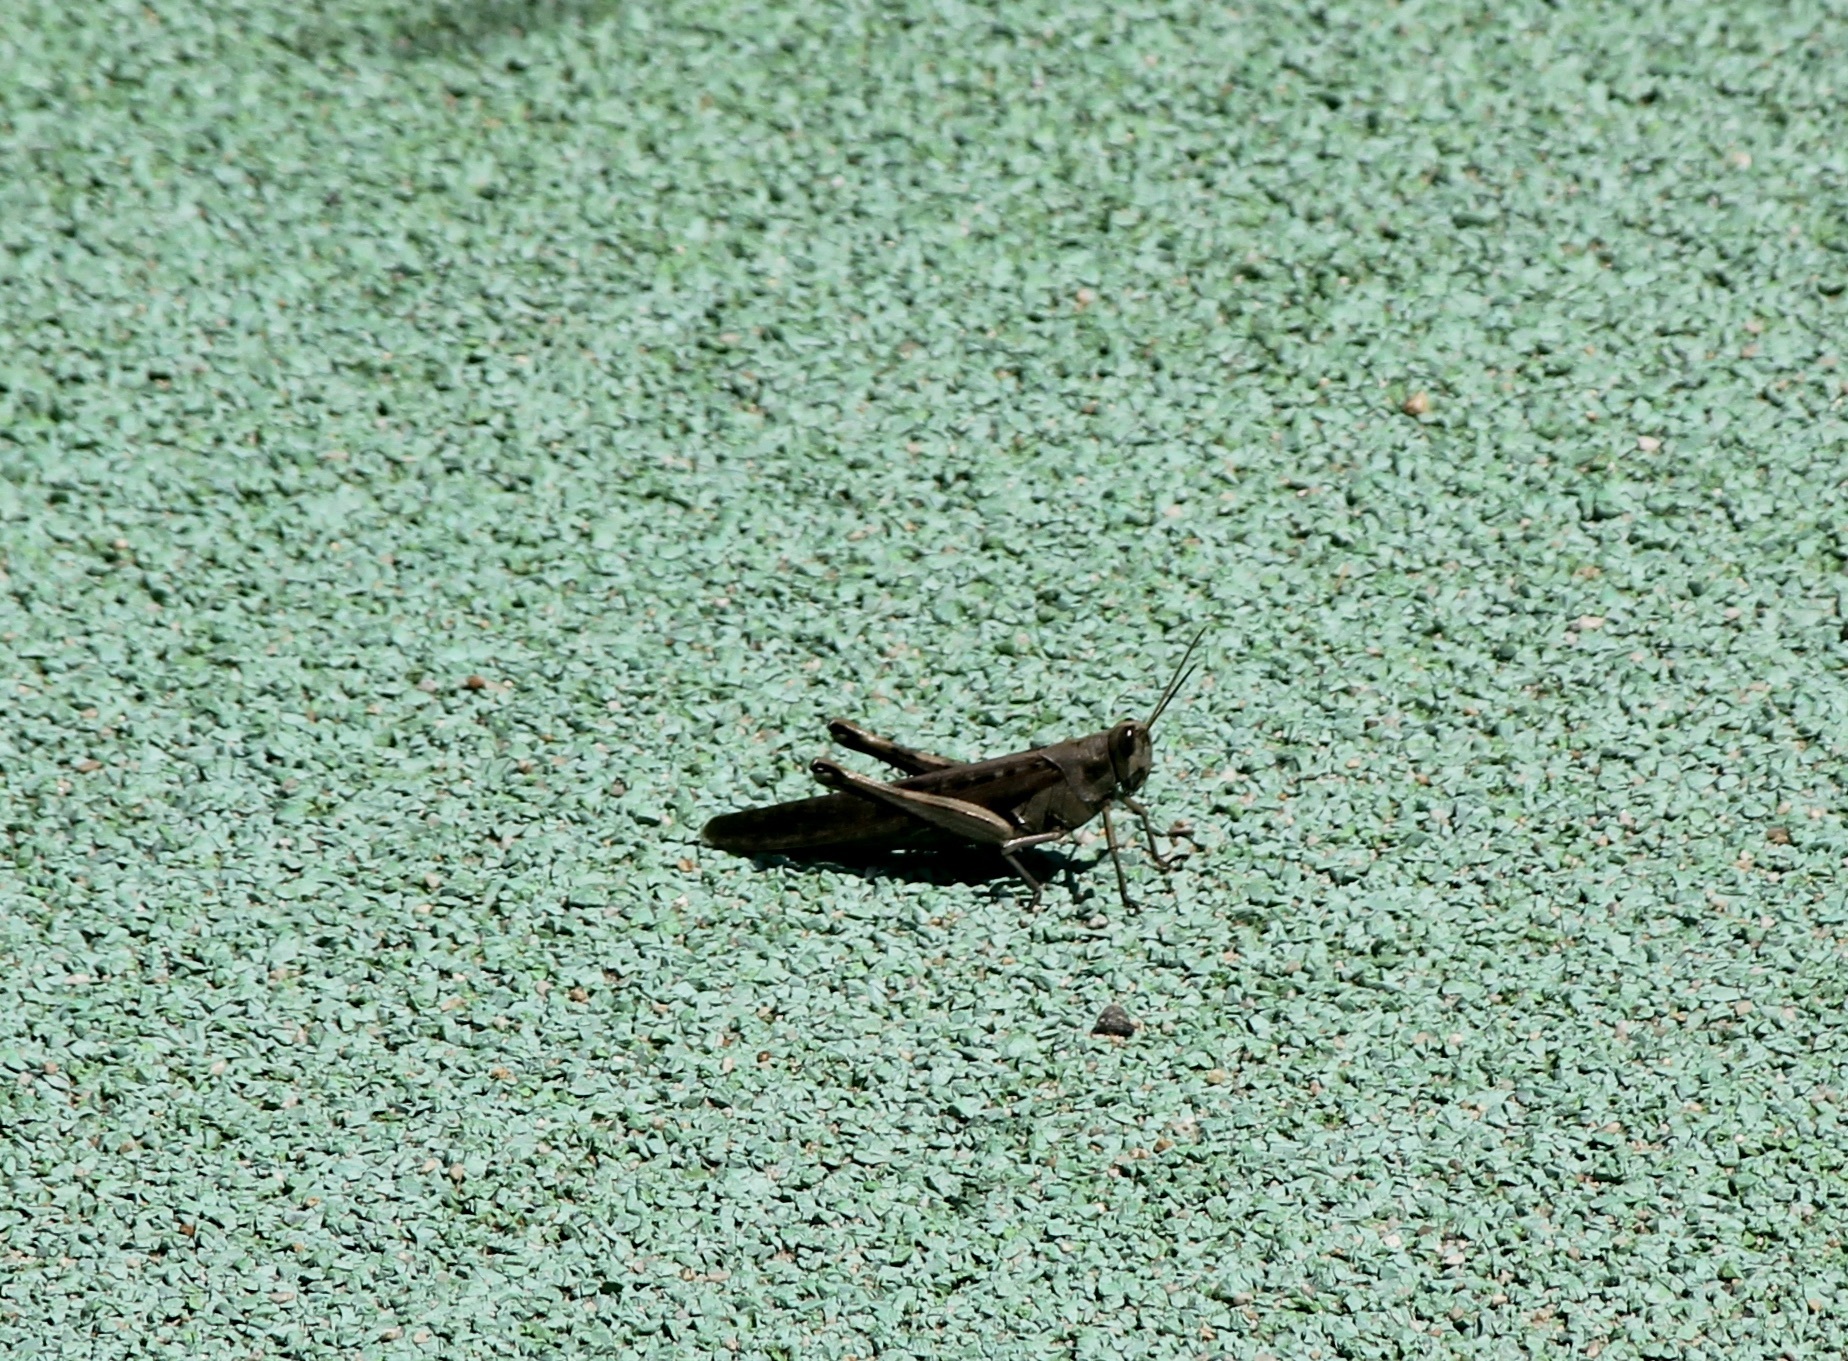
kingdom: Animalia
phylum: Arthropoda
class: Insecta
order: Orthoptera
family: Acrididae
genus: Schistocerca
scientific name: Schistocerca nitens
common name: Vagrant grasshopper
